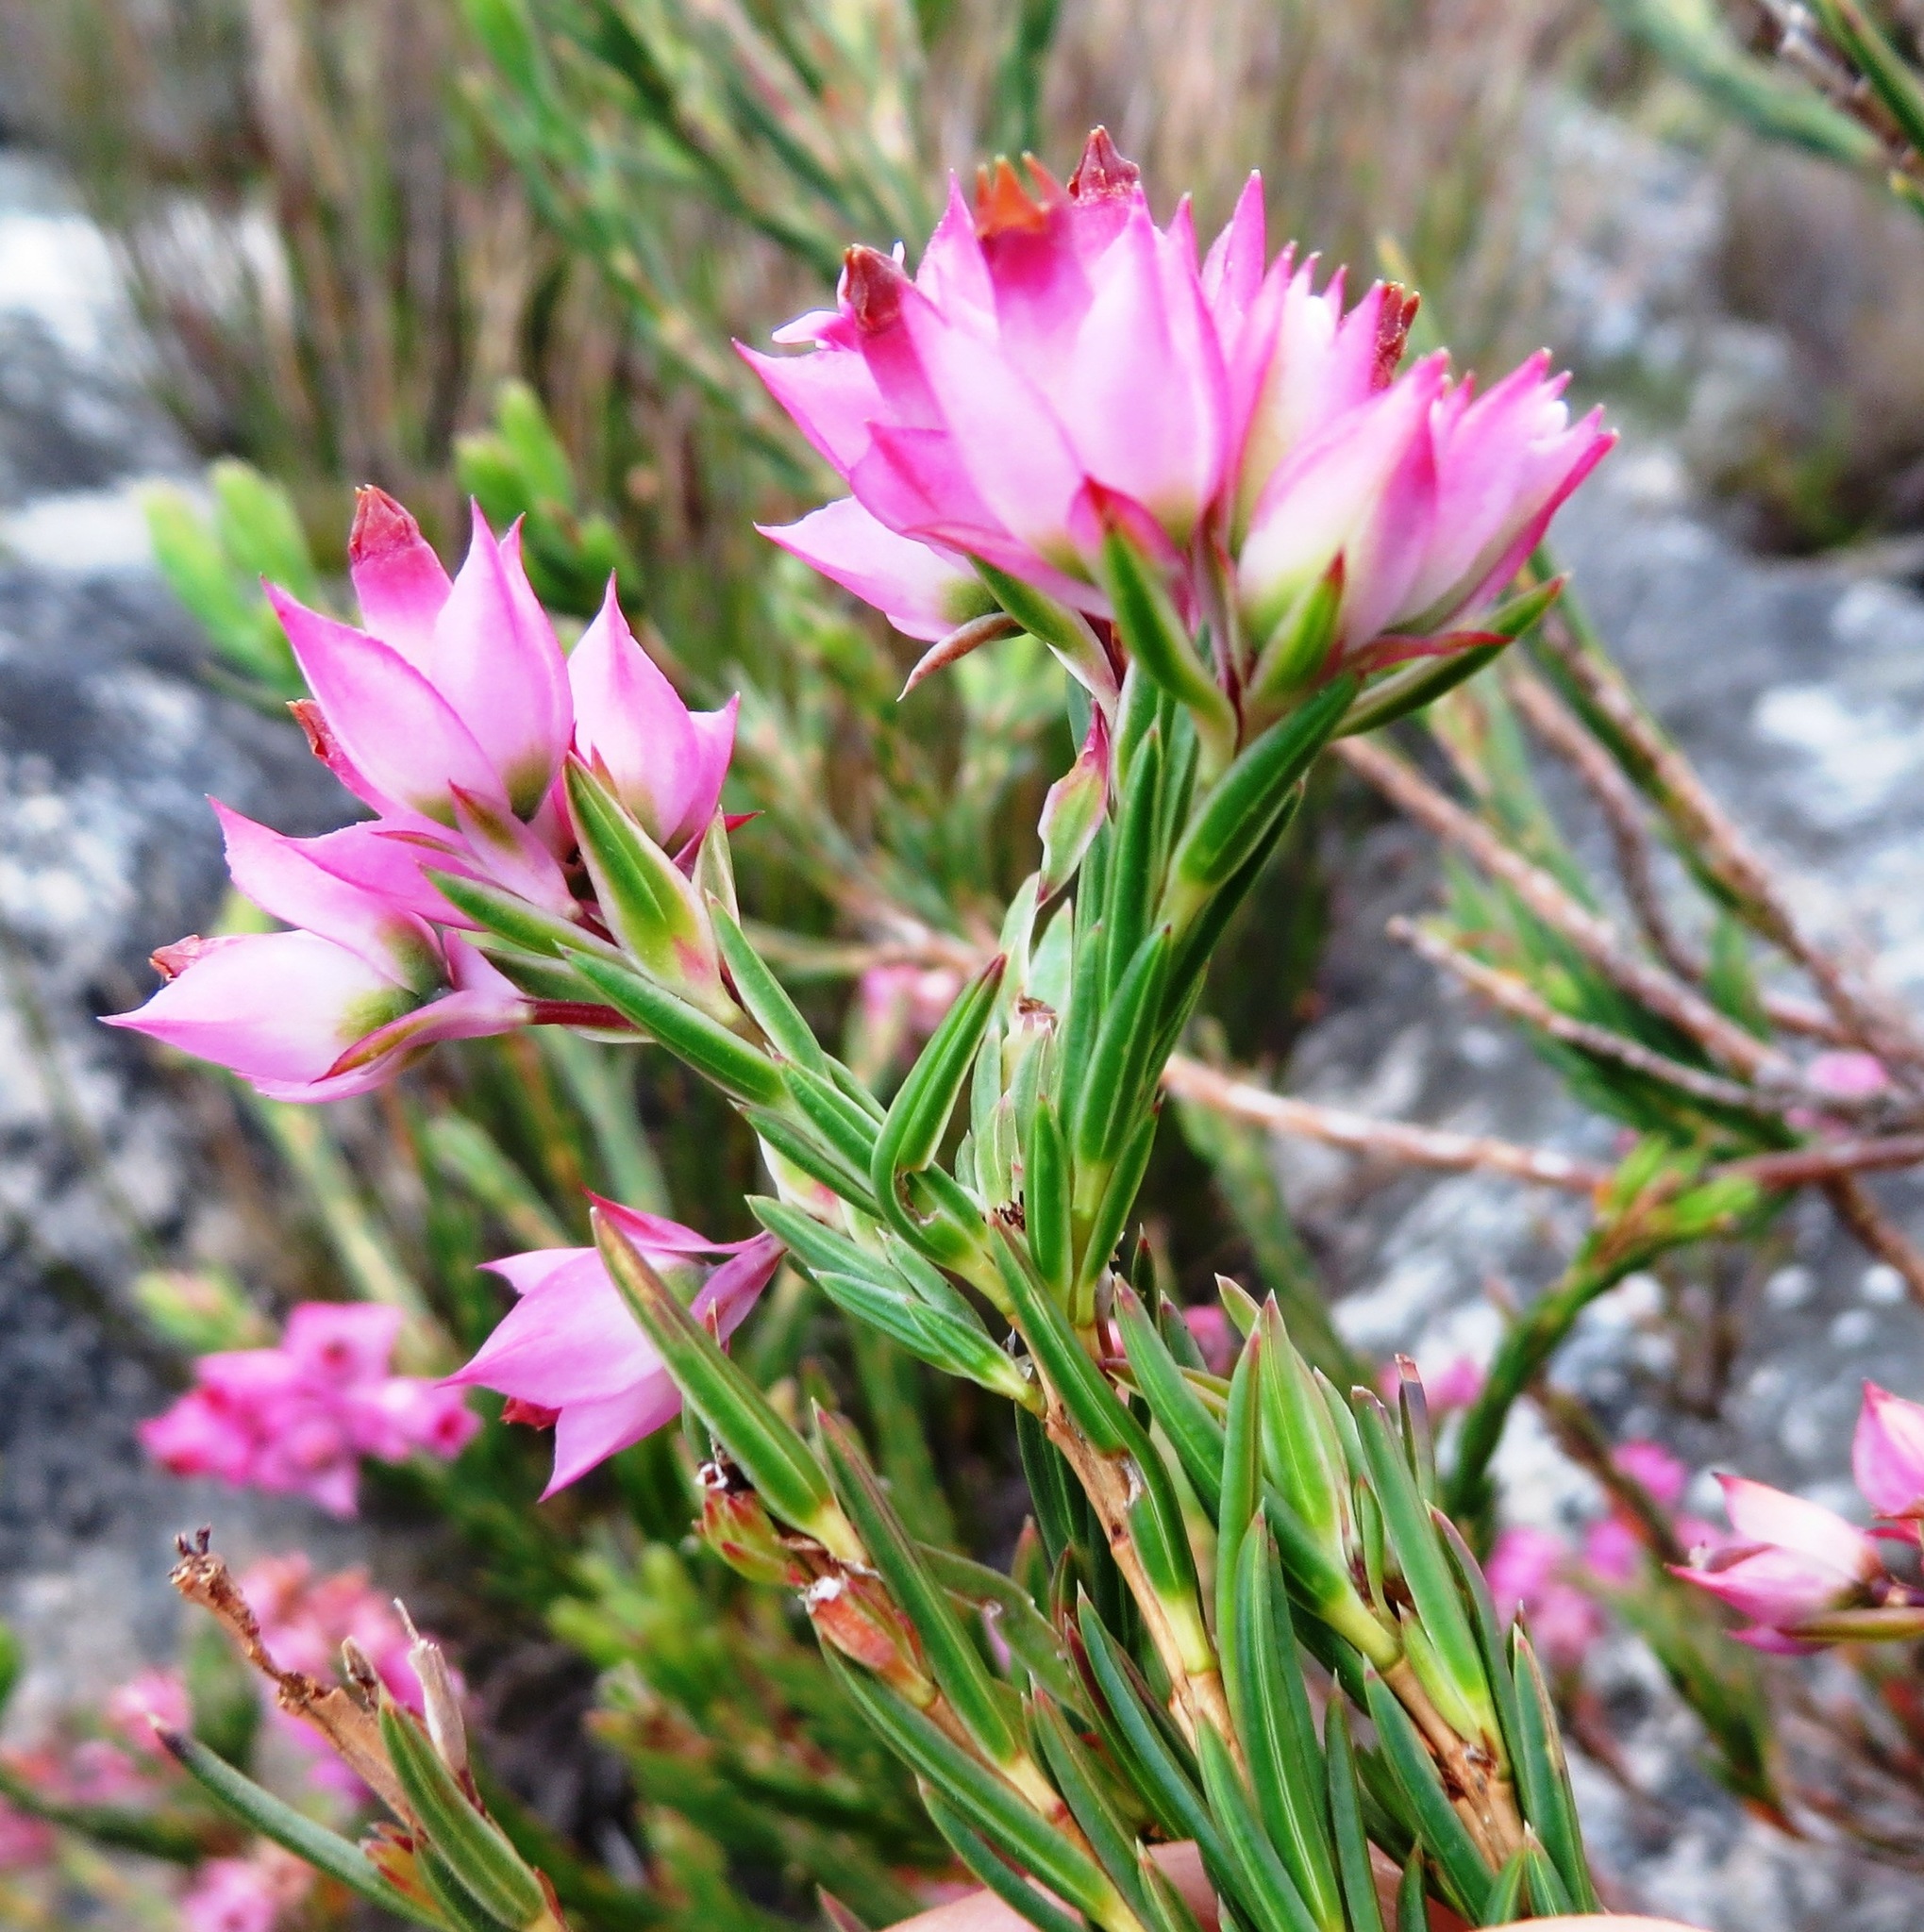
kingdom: Plantae
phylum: Tracheophyta
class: Magnoliopsida
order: Ericales
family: Ericaceae
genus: Erica
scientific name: Erica taxifolia
